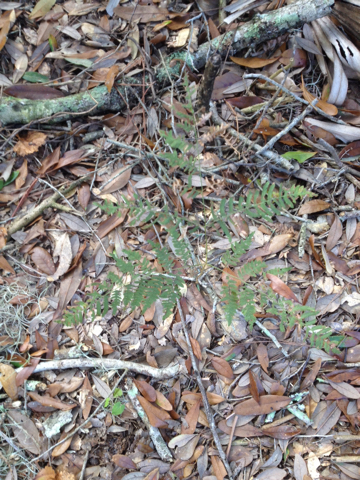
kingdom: Plantae
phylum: Tracheophyta
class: Polypodiopsida
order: Polypodiales
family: Dennstaedtiaceae
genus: Pteridium
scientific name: Pteridium aquilinum
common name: Bracken
